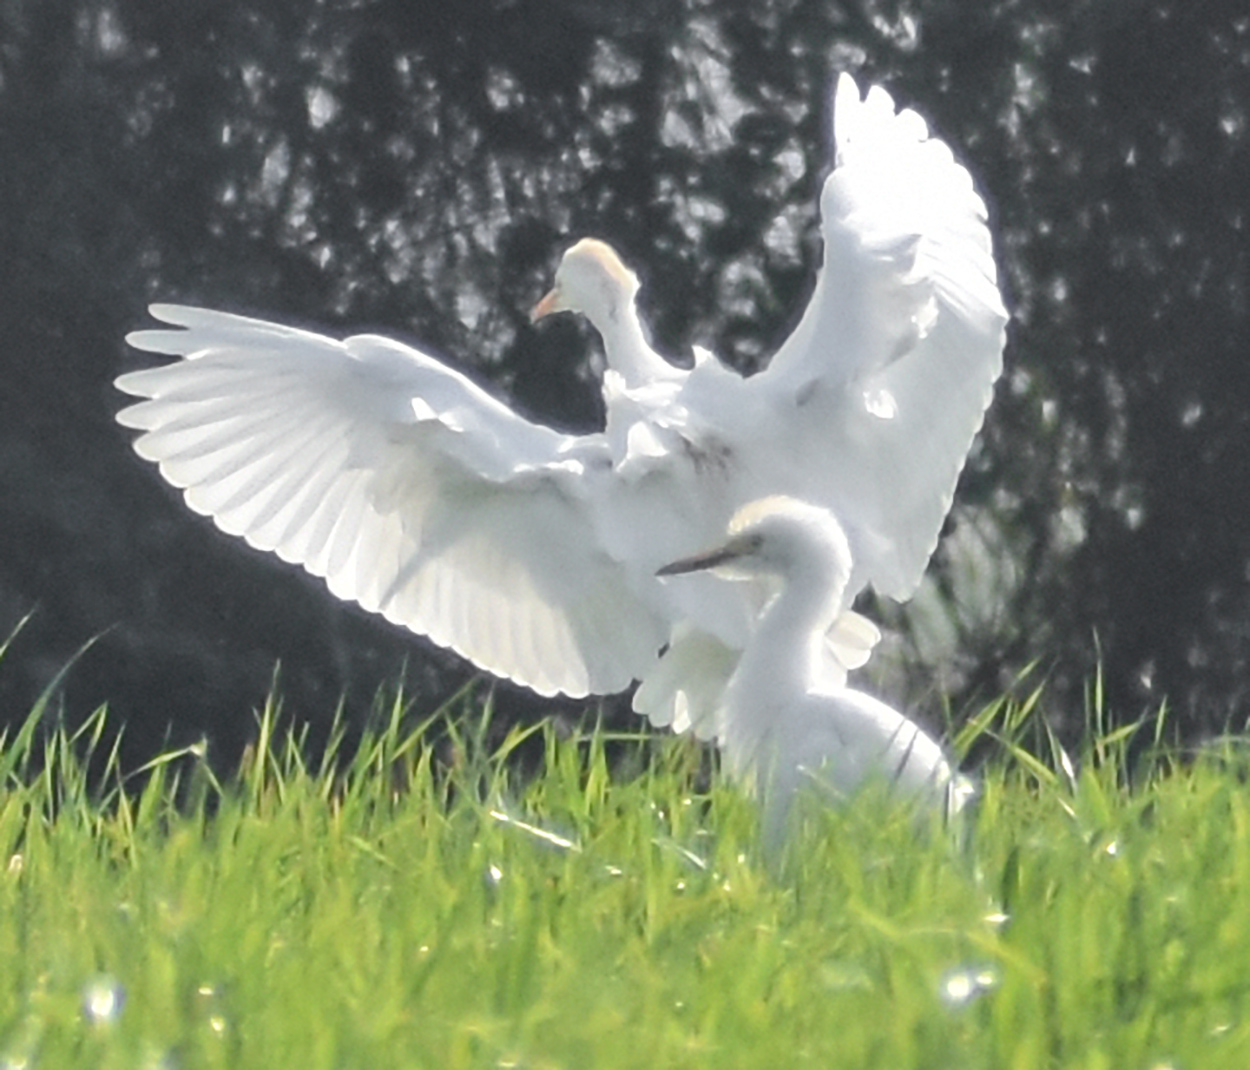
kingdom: Animalia
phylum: Chordata
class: Aves
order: Pelecaniformes
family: Ardeidae
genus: Bubulcus
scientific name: Bubulcus ibis
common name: Cattle egret
